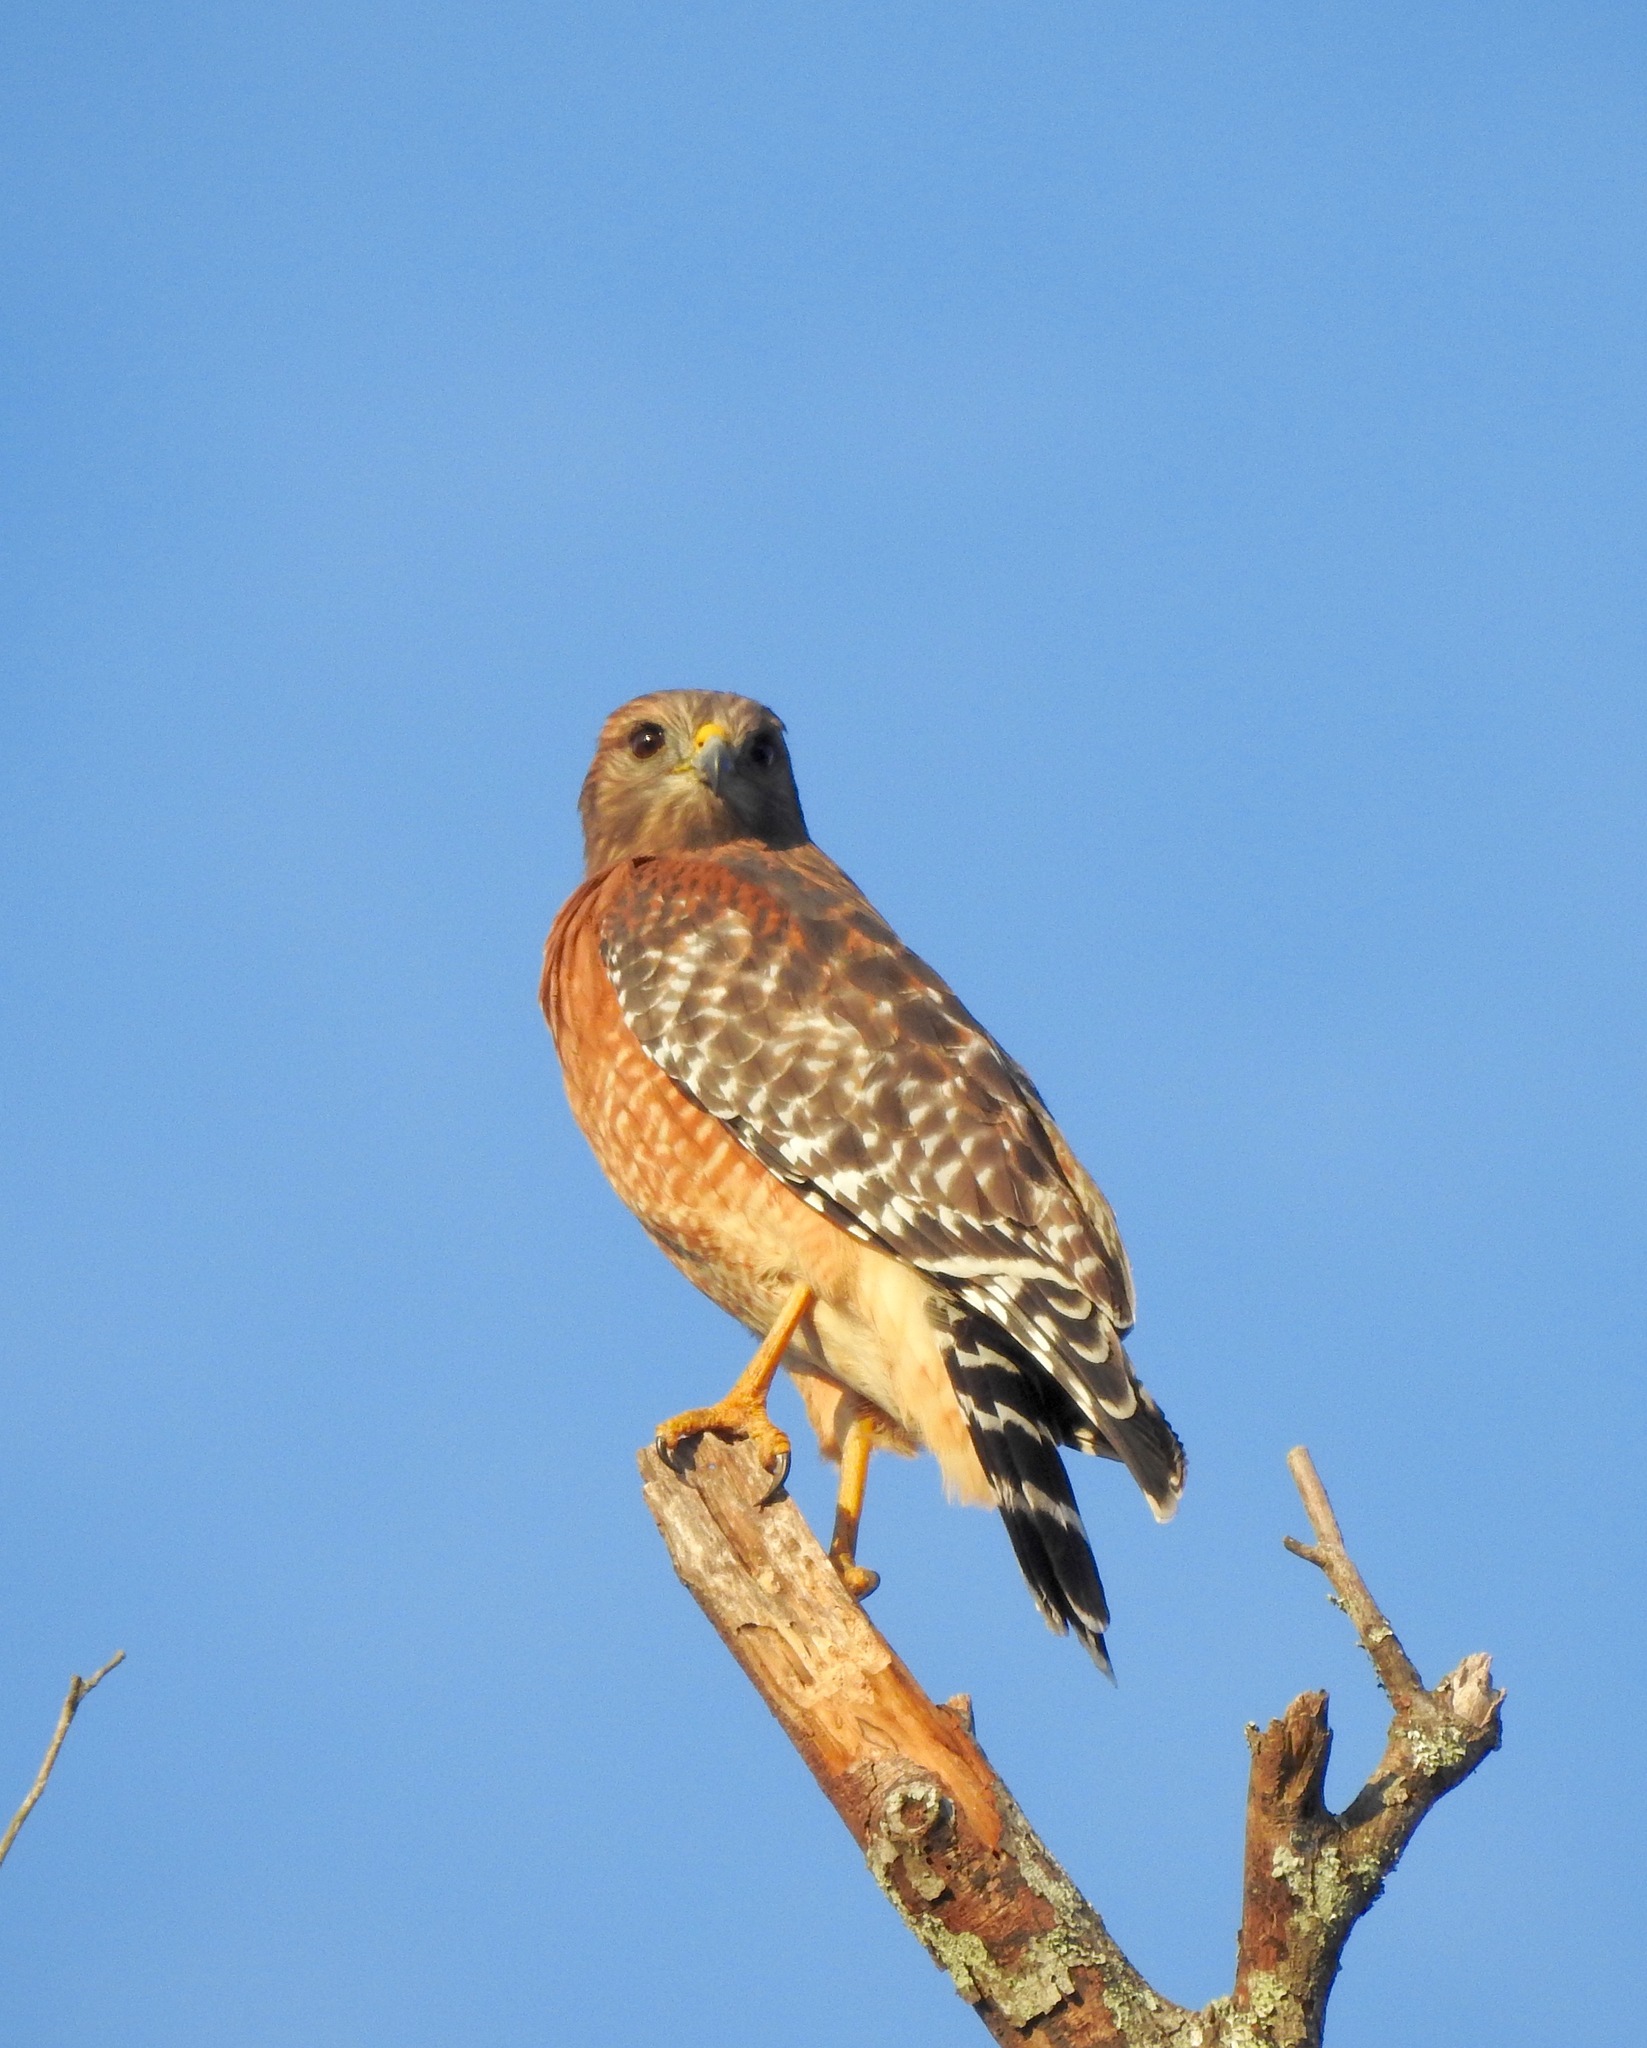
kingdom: Animalia
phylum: Chordata
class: Aves
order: Accipitriformes
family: Accipitridae
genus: Buteo
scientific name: Buteo lineatus
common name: Red-shouldered hawk
